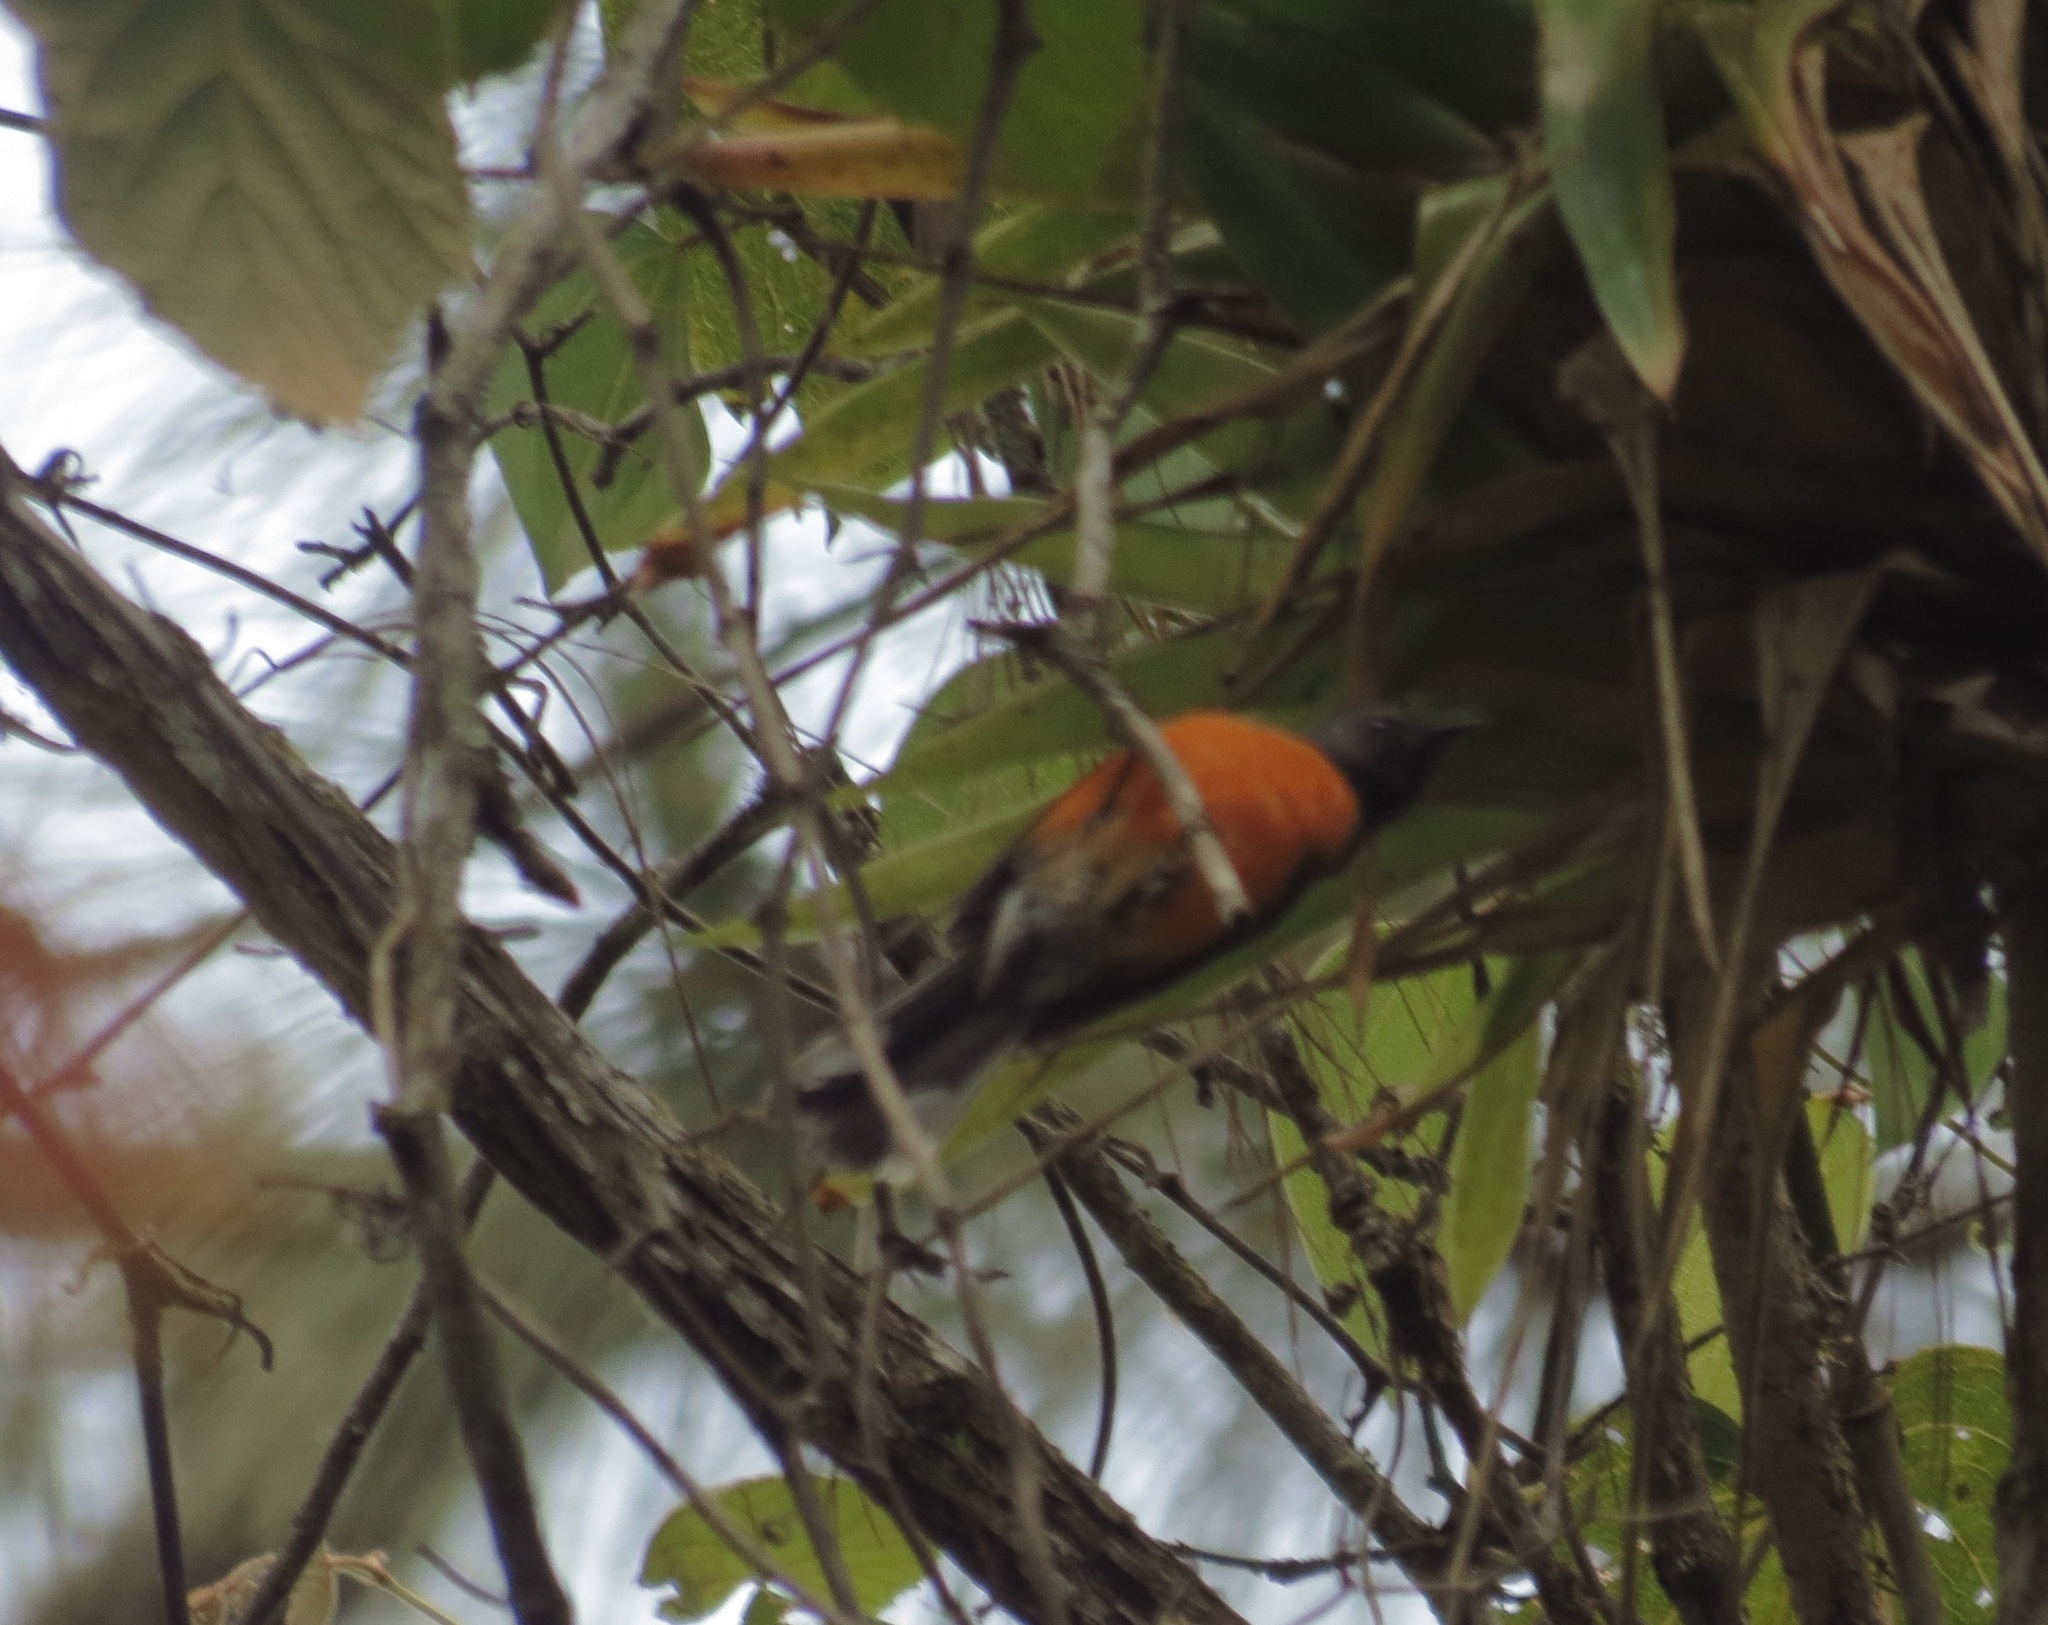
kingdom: Animalia
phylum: Chordata
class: Aves
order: Passeriformes
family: Parulidae
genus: Myioborus
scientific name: Myioborus miniatus
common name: Slate-throated redstart
